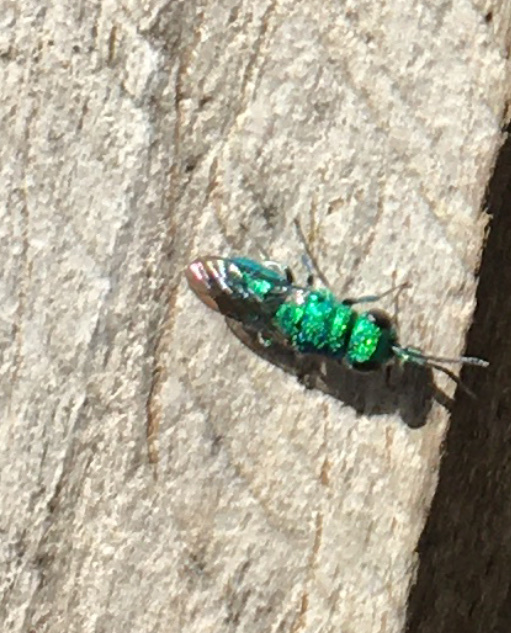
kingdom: Animalia
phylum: Arthropoda
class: Insecta
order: Hymenoptera
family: Chrysididae
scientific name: Chrysididae
